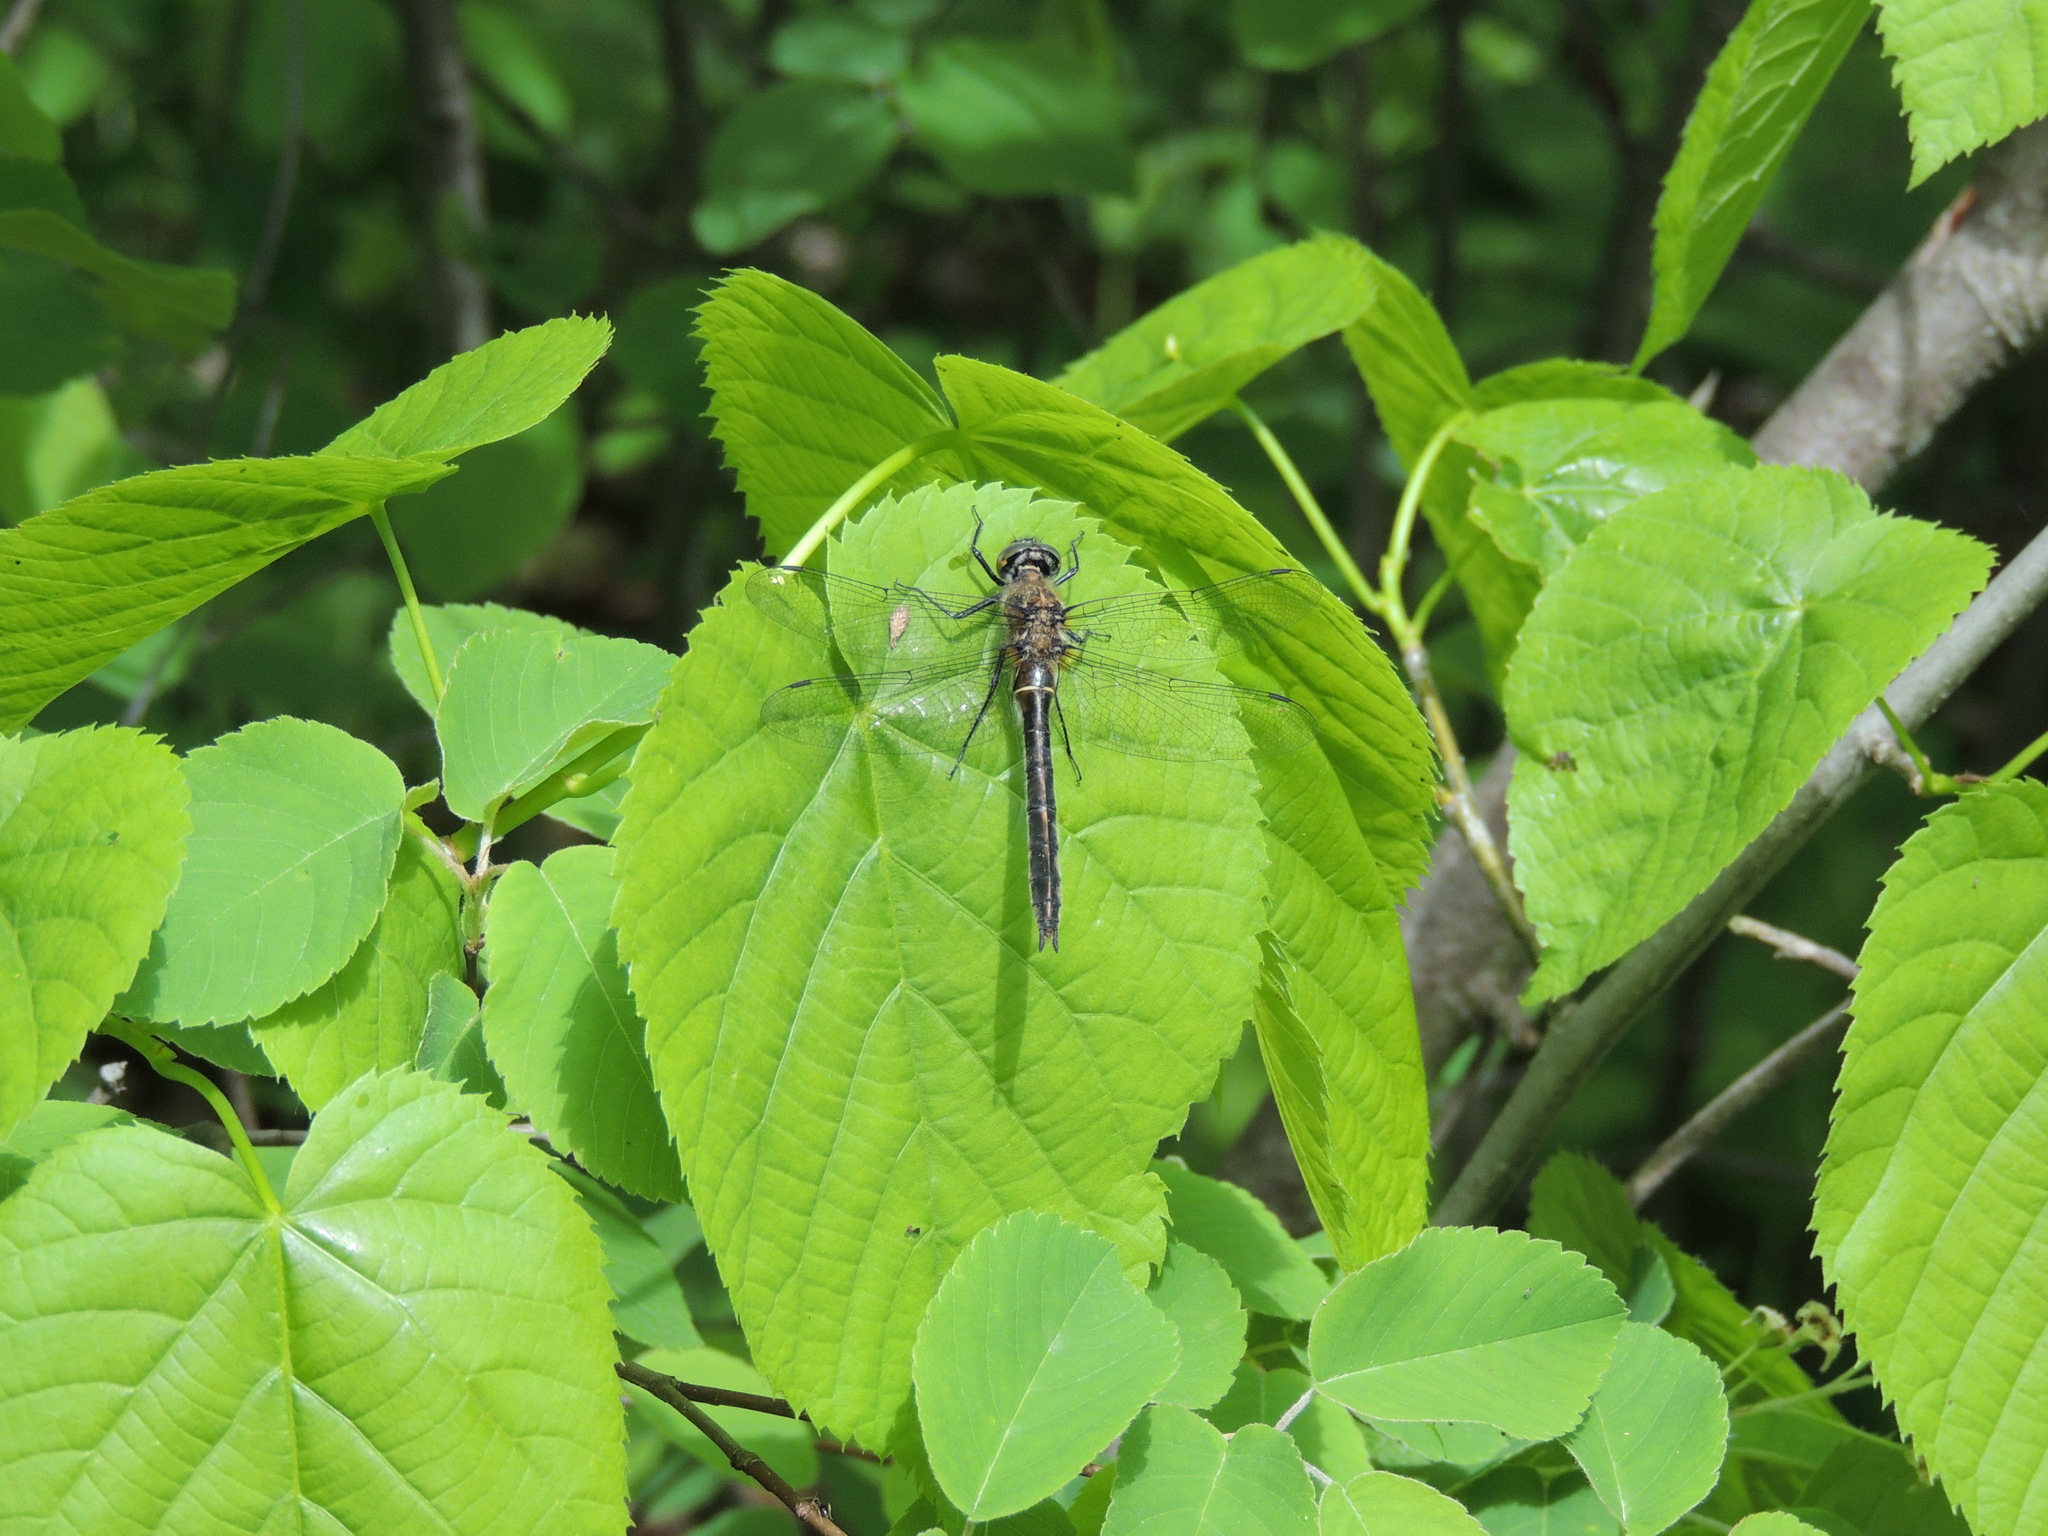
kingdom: Animalia
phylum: Arthropoda
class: Insecta
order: Odonata
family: Corduliidae
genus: Cordulia
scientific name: Cordulia shurtleffii
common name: American emerald
